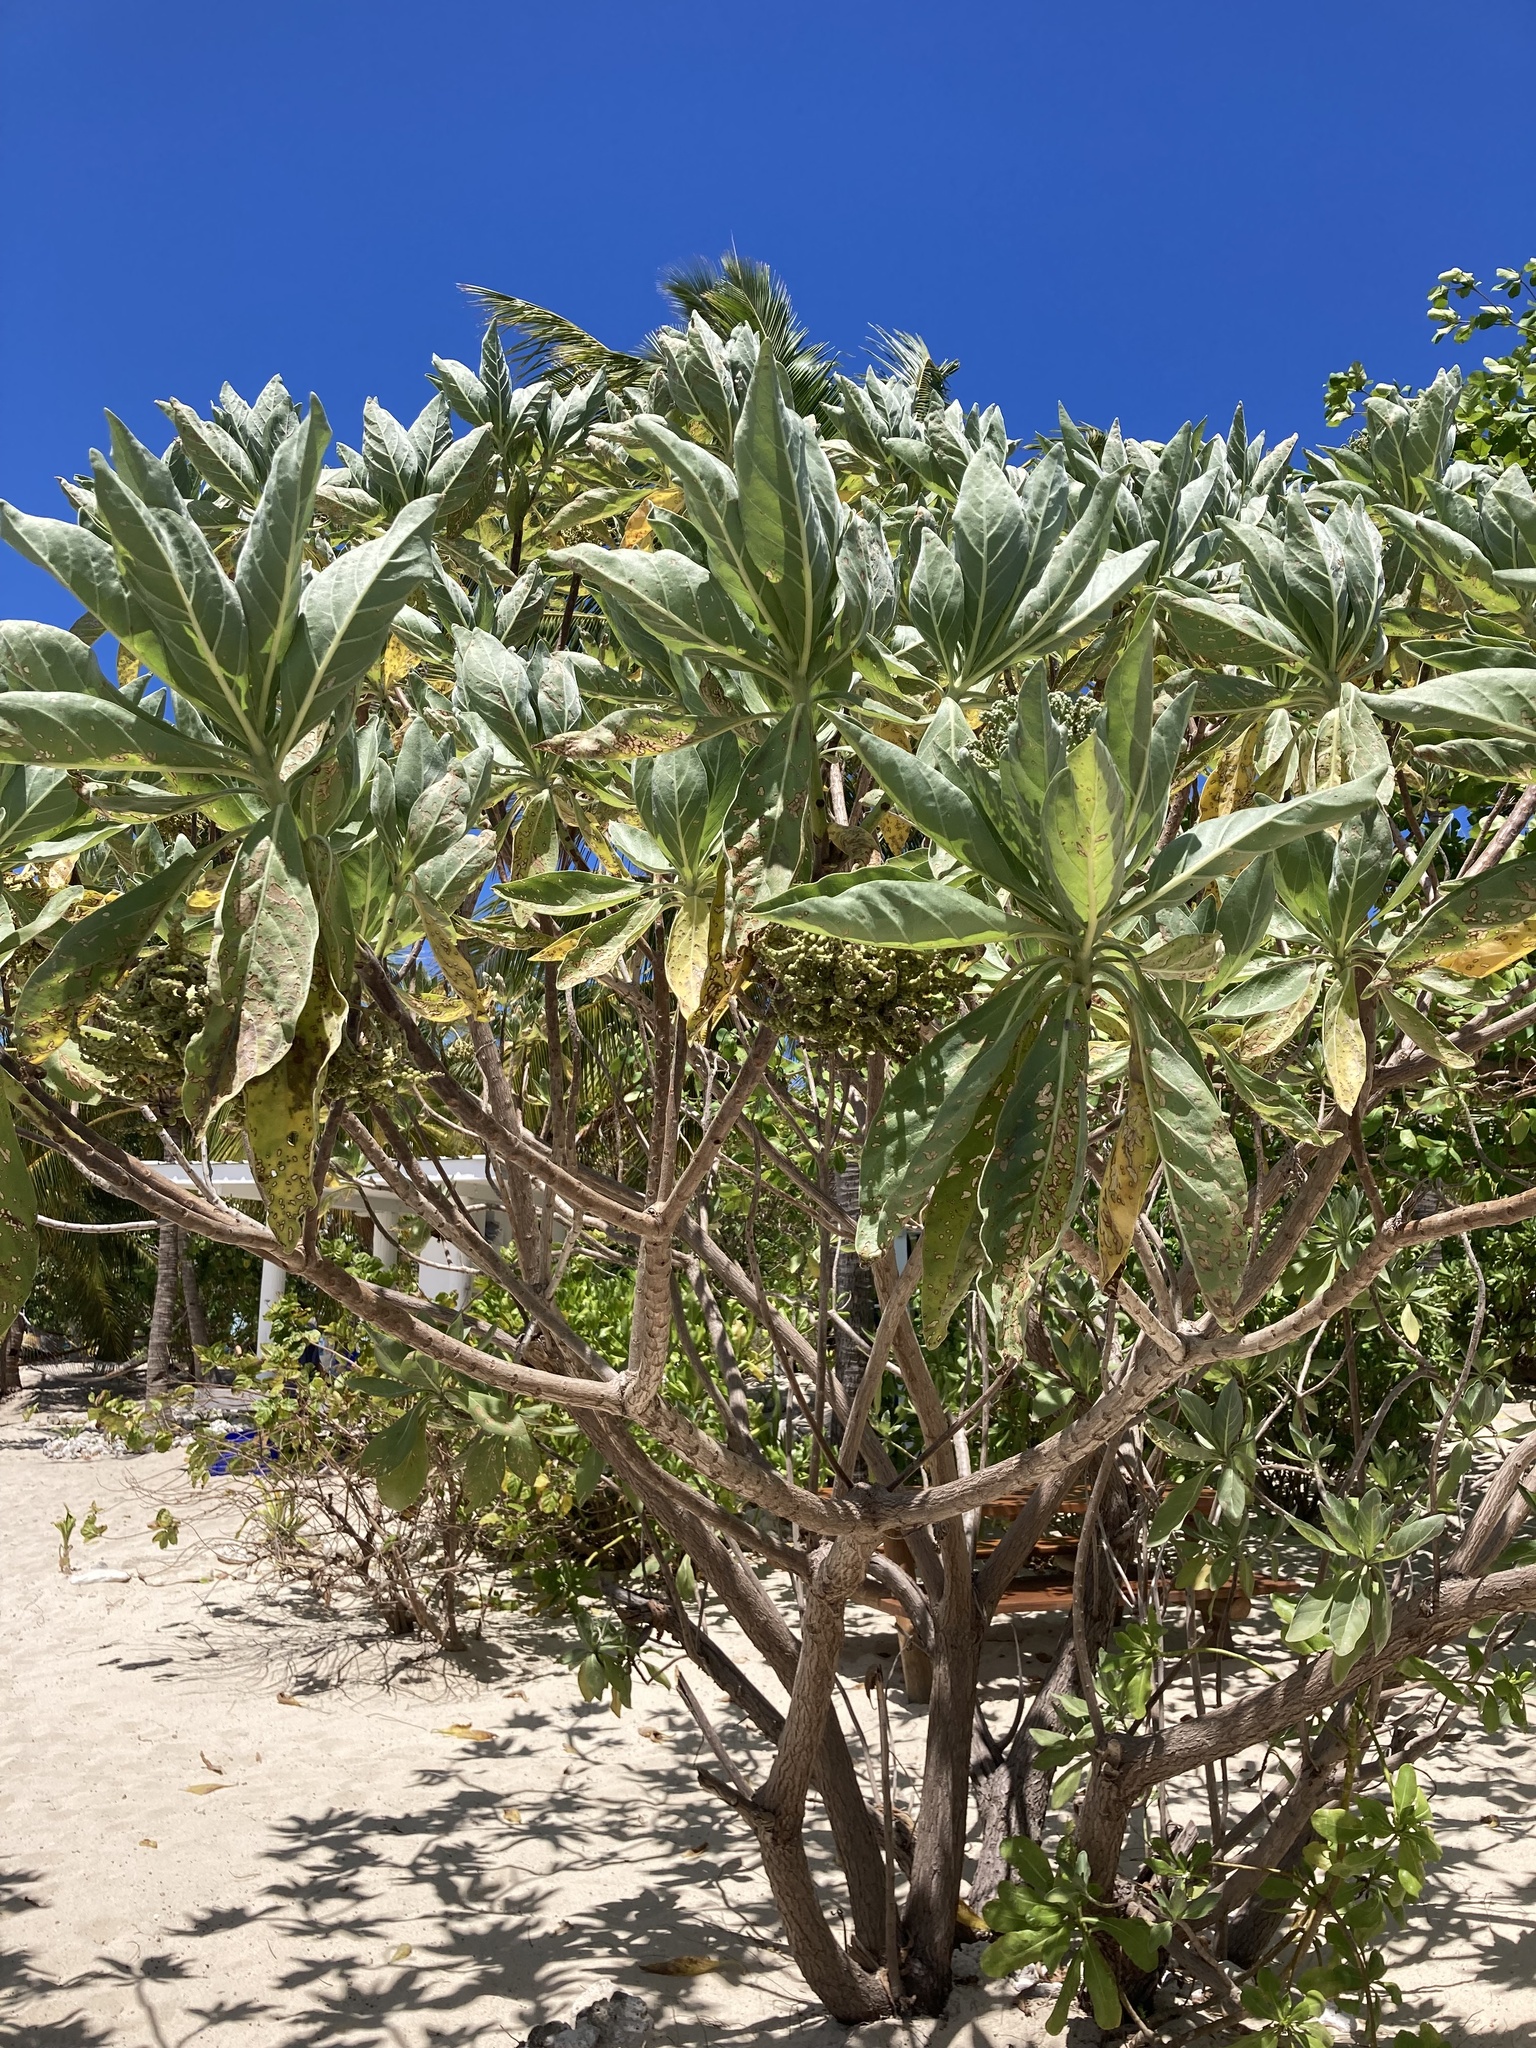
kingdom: Plantae
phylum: Tracheophyta
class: Magnoliopsida
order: Boraginales
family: Heliotropiaceae
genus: Heliotropium
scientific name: Heliotropium velutinum
